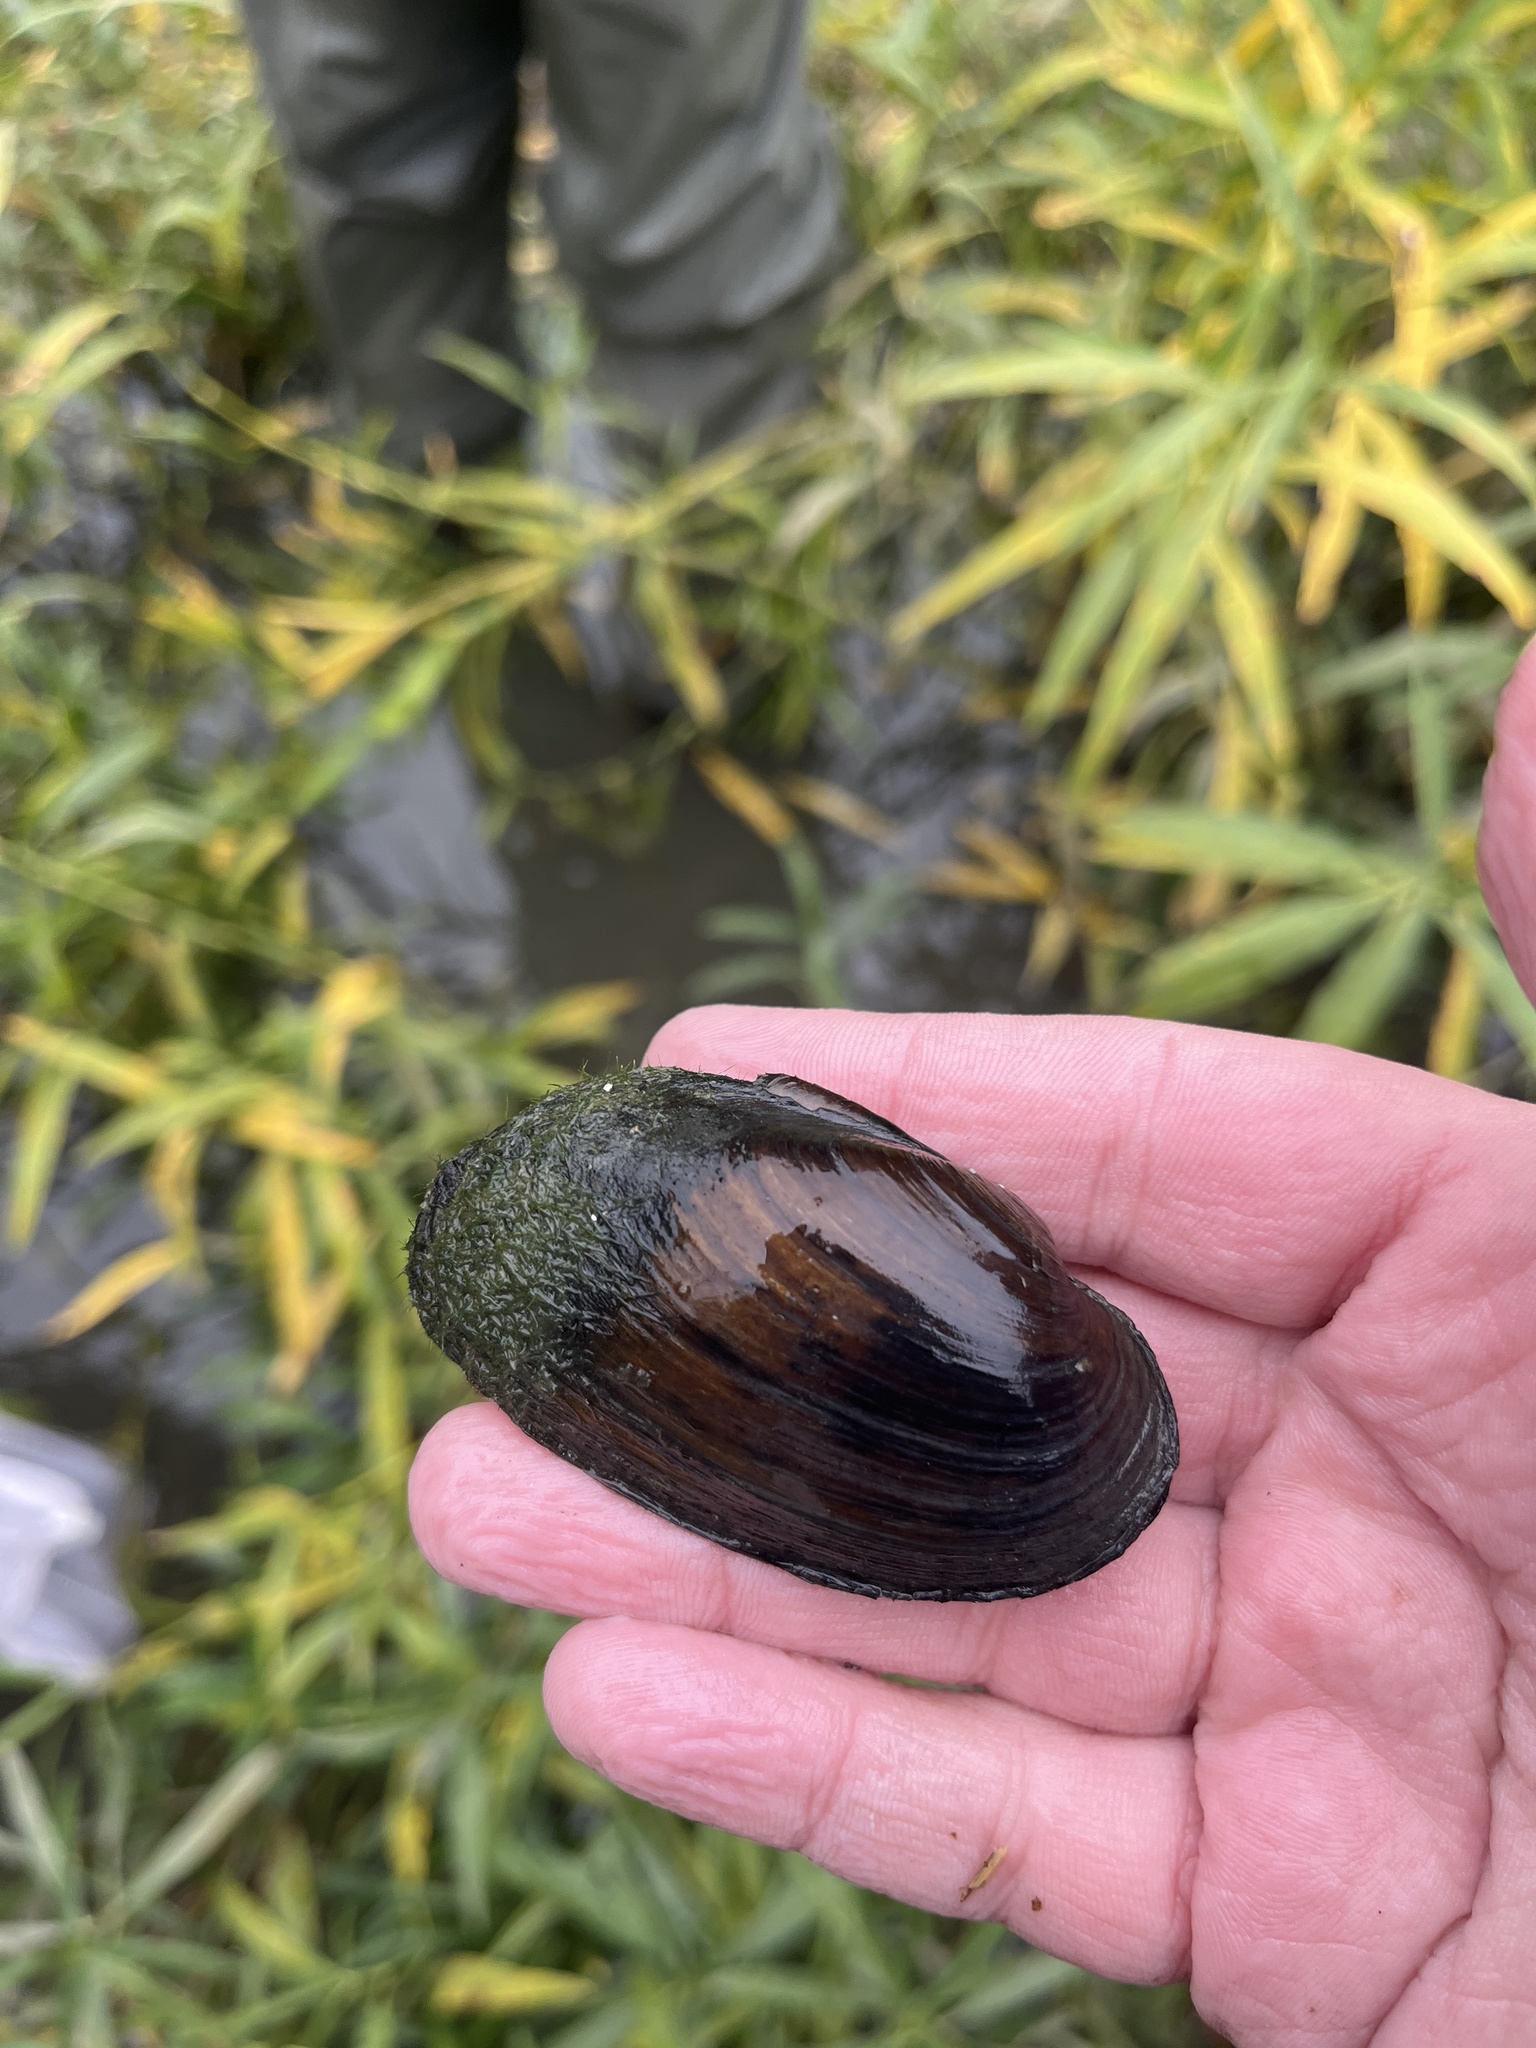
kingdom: Animalia
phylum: Mollusca
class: Bivalvia
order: Unionida
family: Unionidae
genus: Eurynia
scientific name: Eurynia dilatata
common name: Spike
